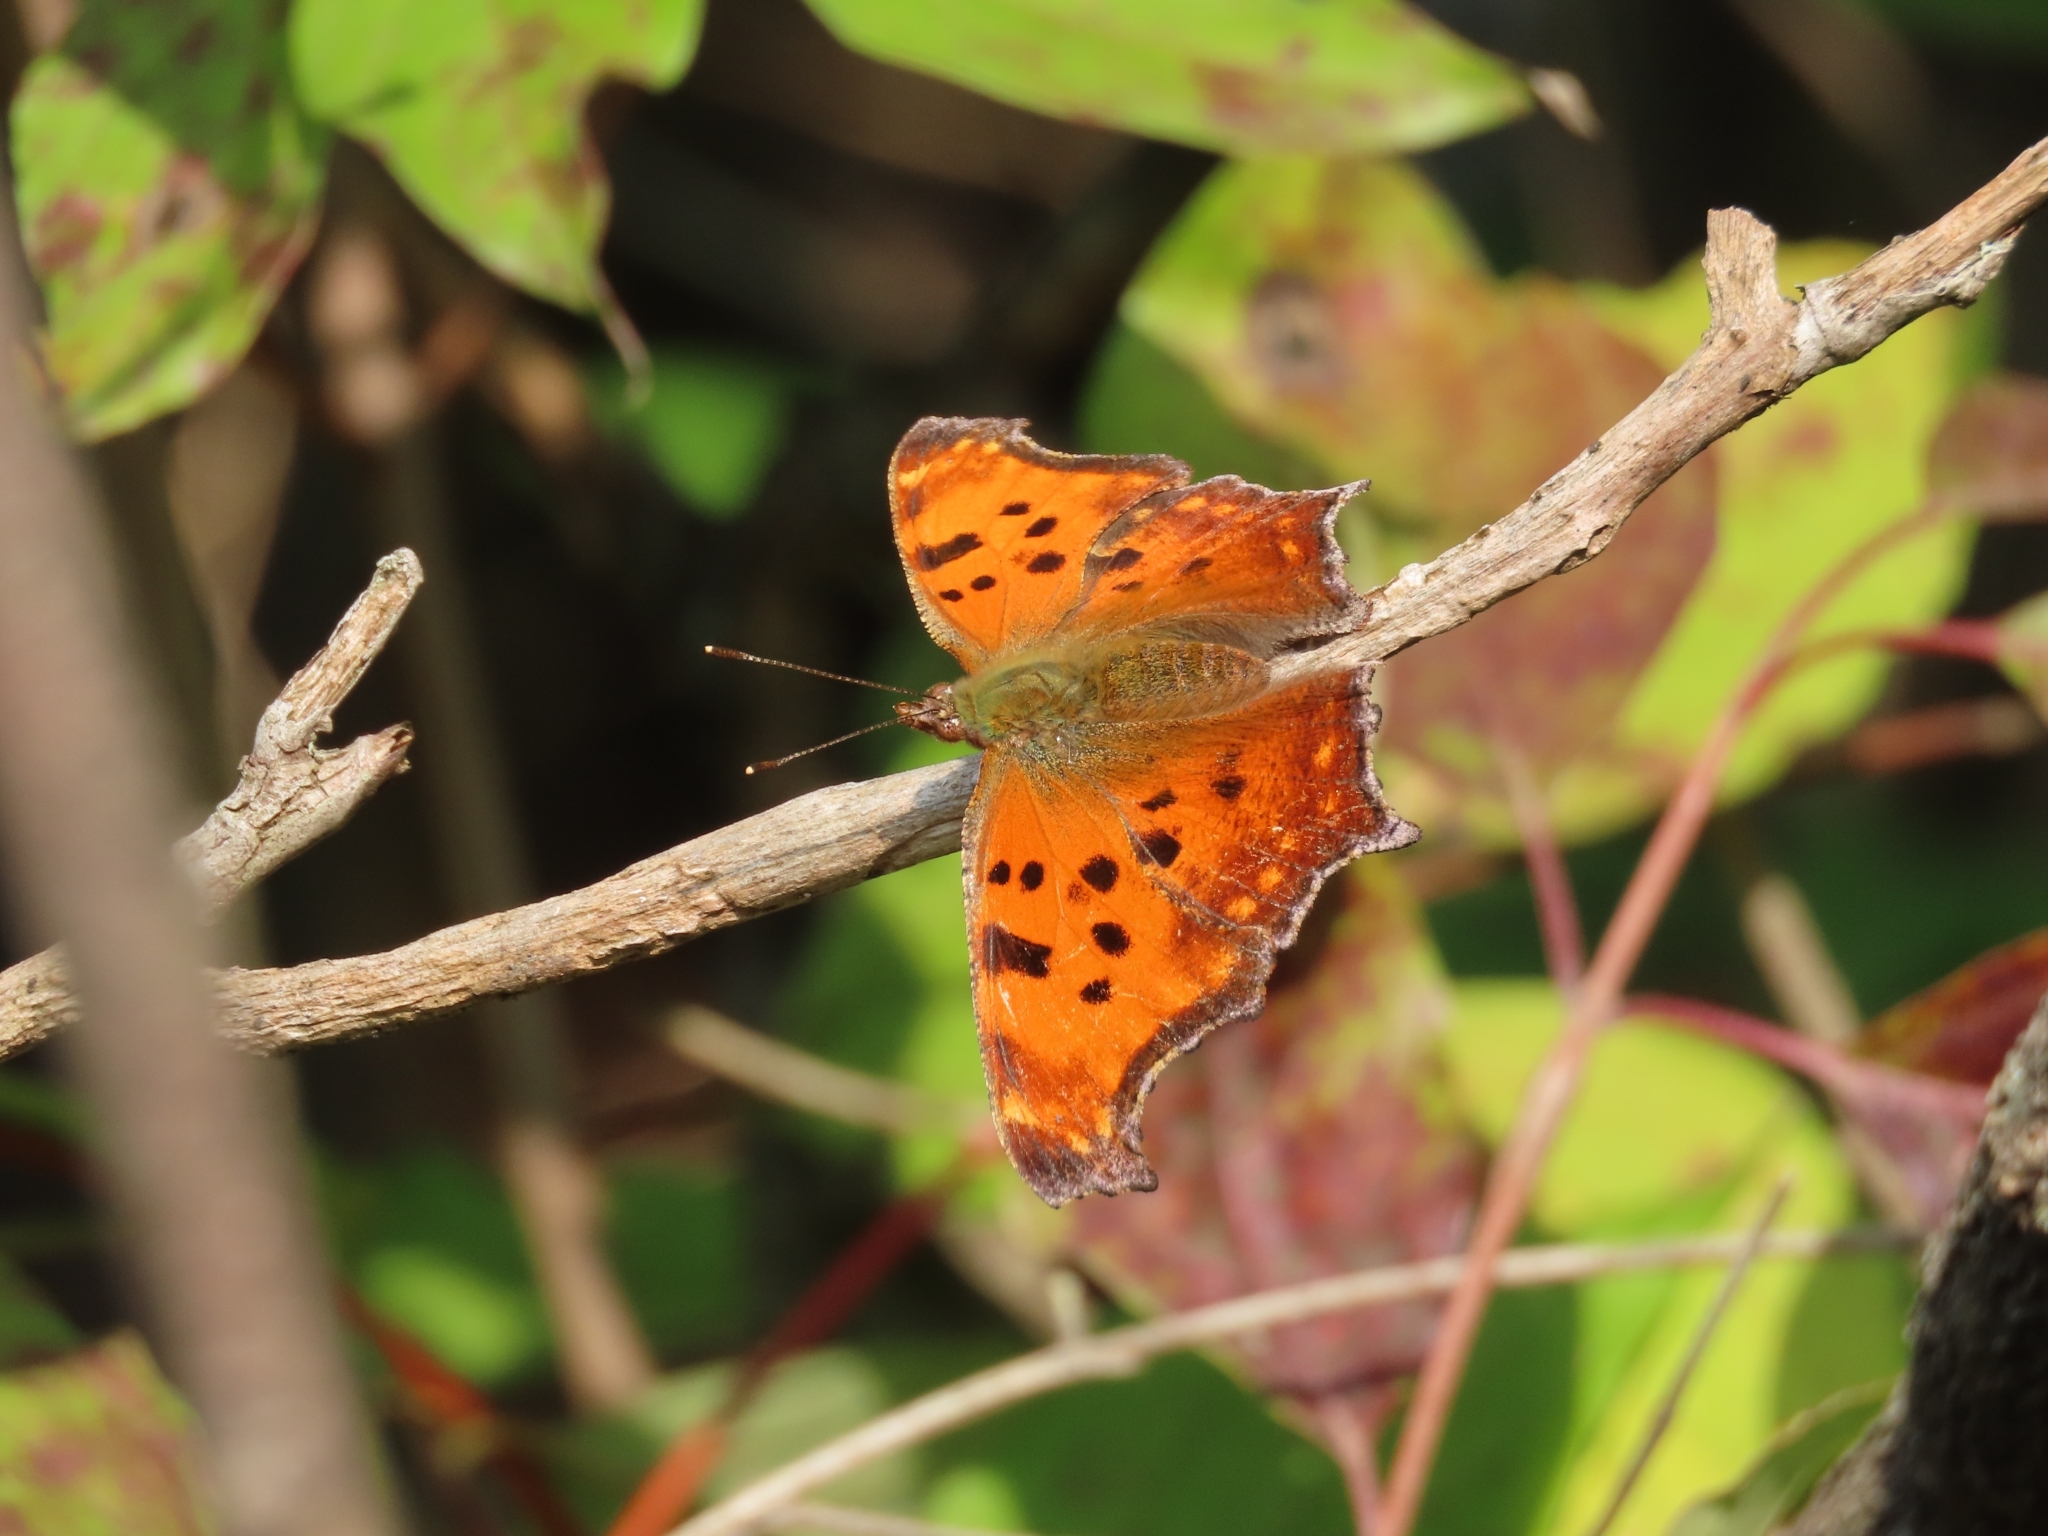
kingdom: Animalia
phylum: Arthropoda
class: Insecta
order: Lepidoptera
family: Nymphalidae
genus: Polygonia
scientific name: Polygonia comma
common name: Eastern comma
